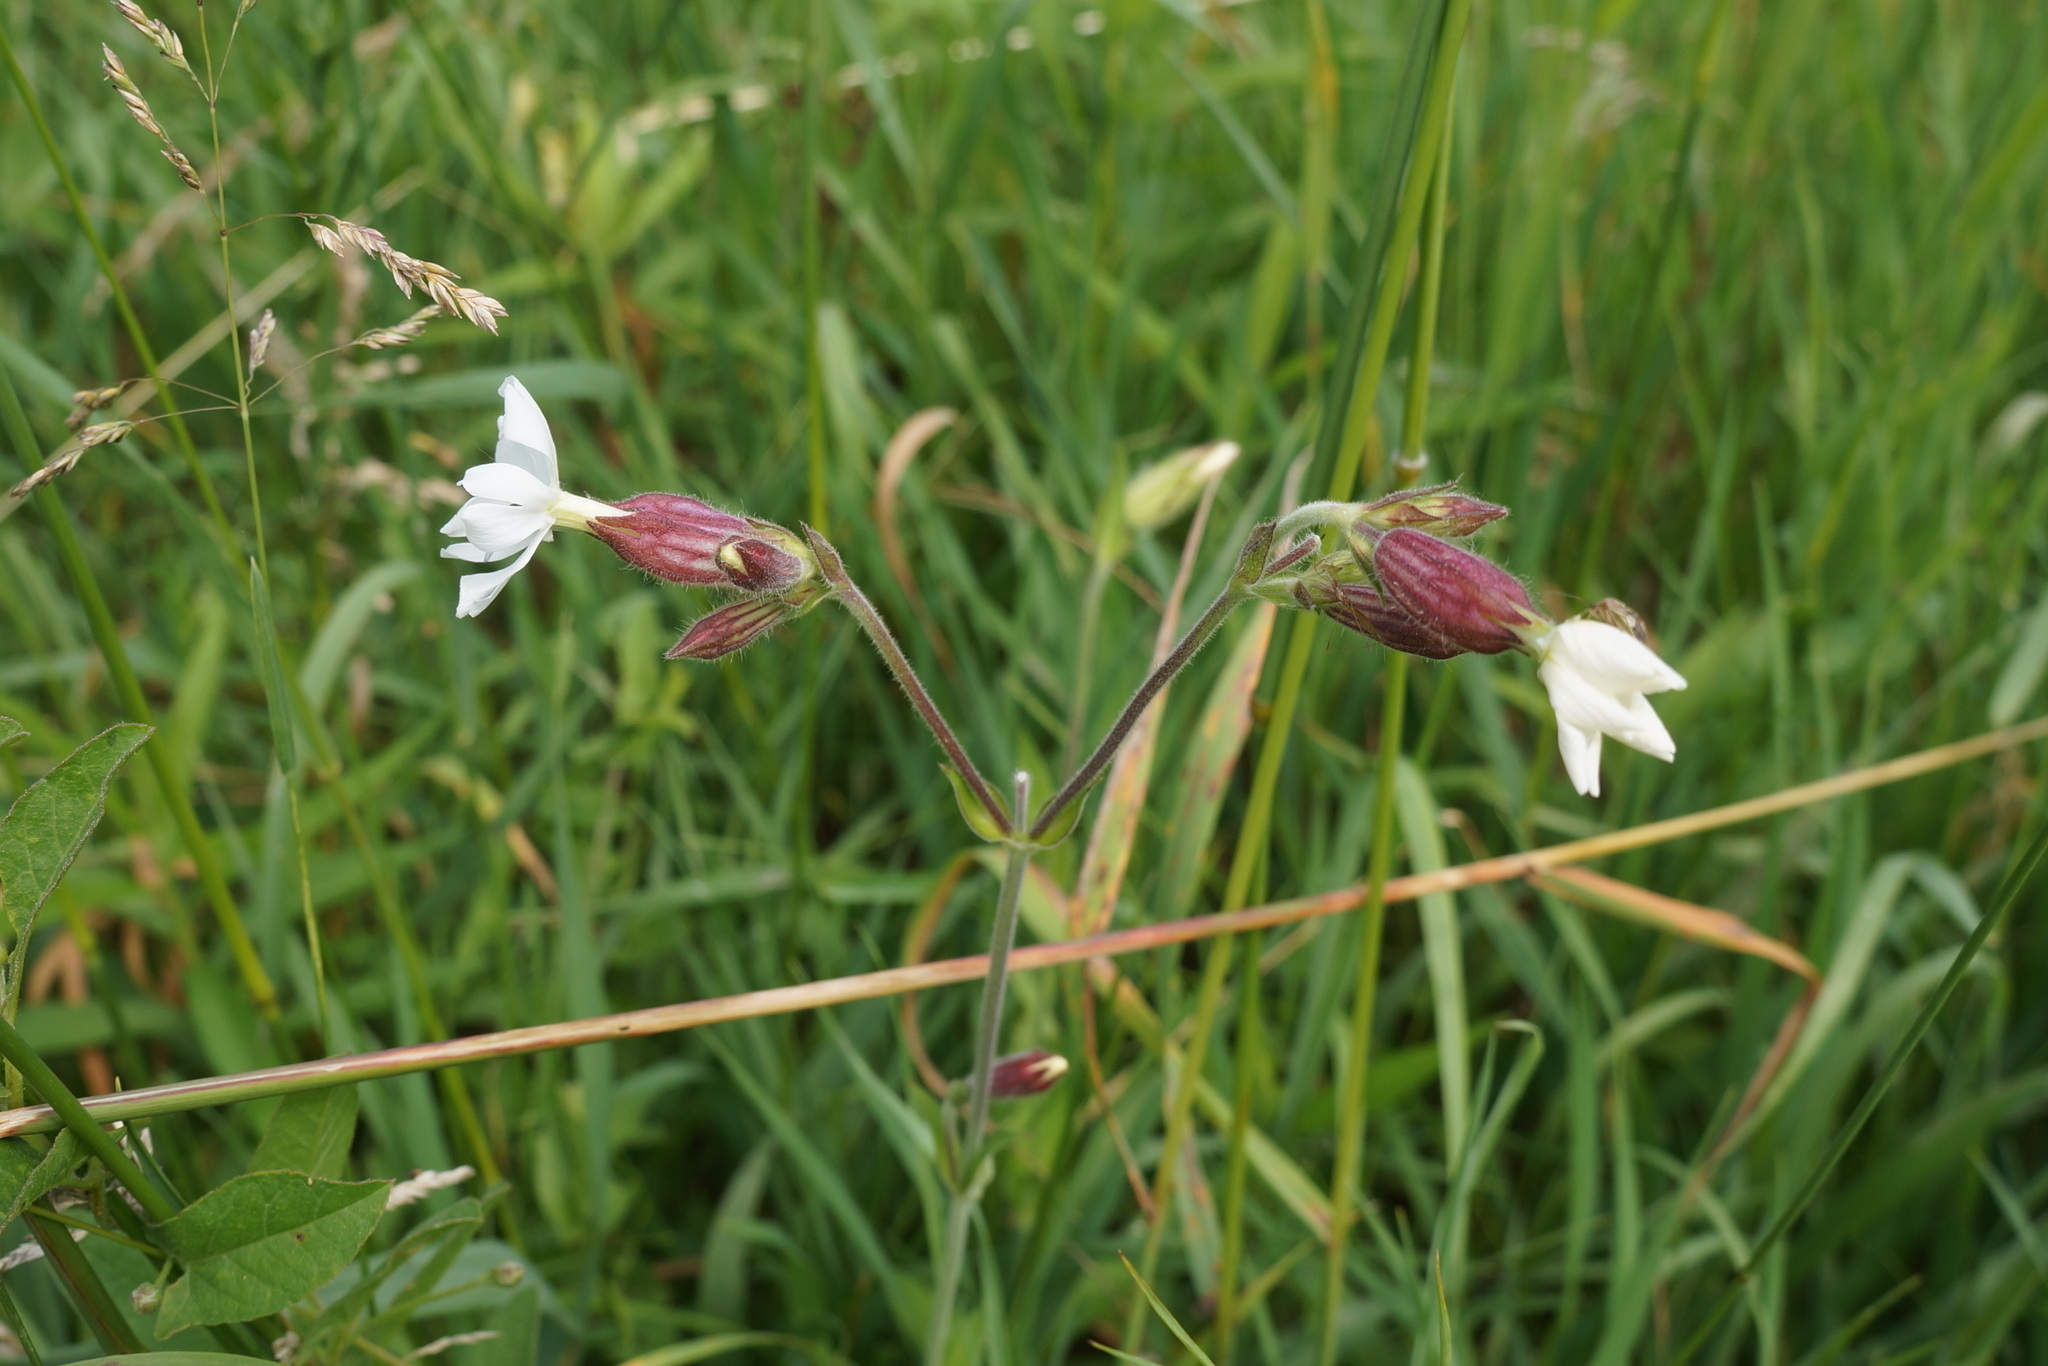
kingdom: Plantae
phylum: Tracheophyta
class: Magnoliopsida
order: Caryophyllales
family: Caryophyllaceae
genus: Silene
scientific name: Silene latifolia
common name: White campion
